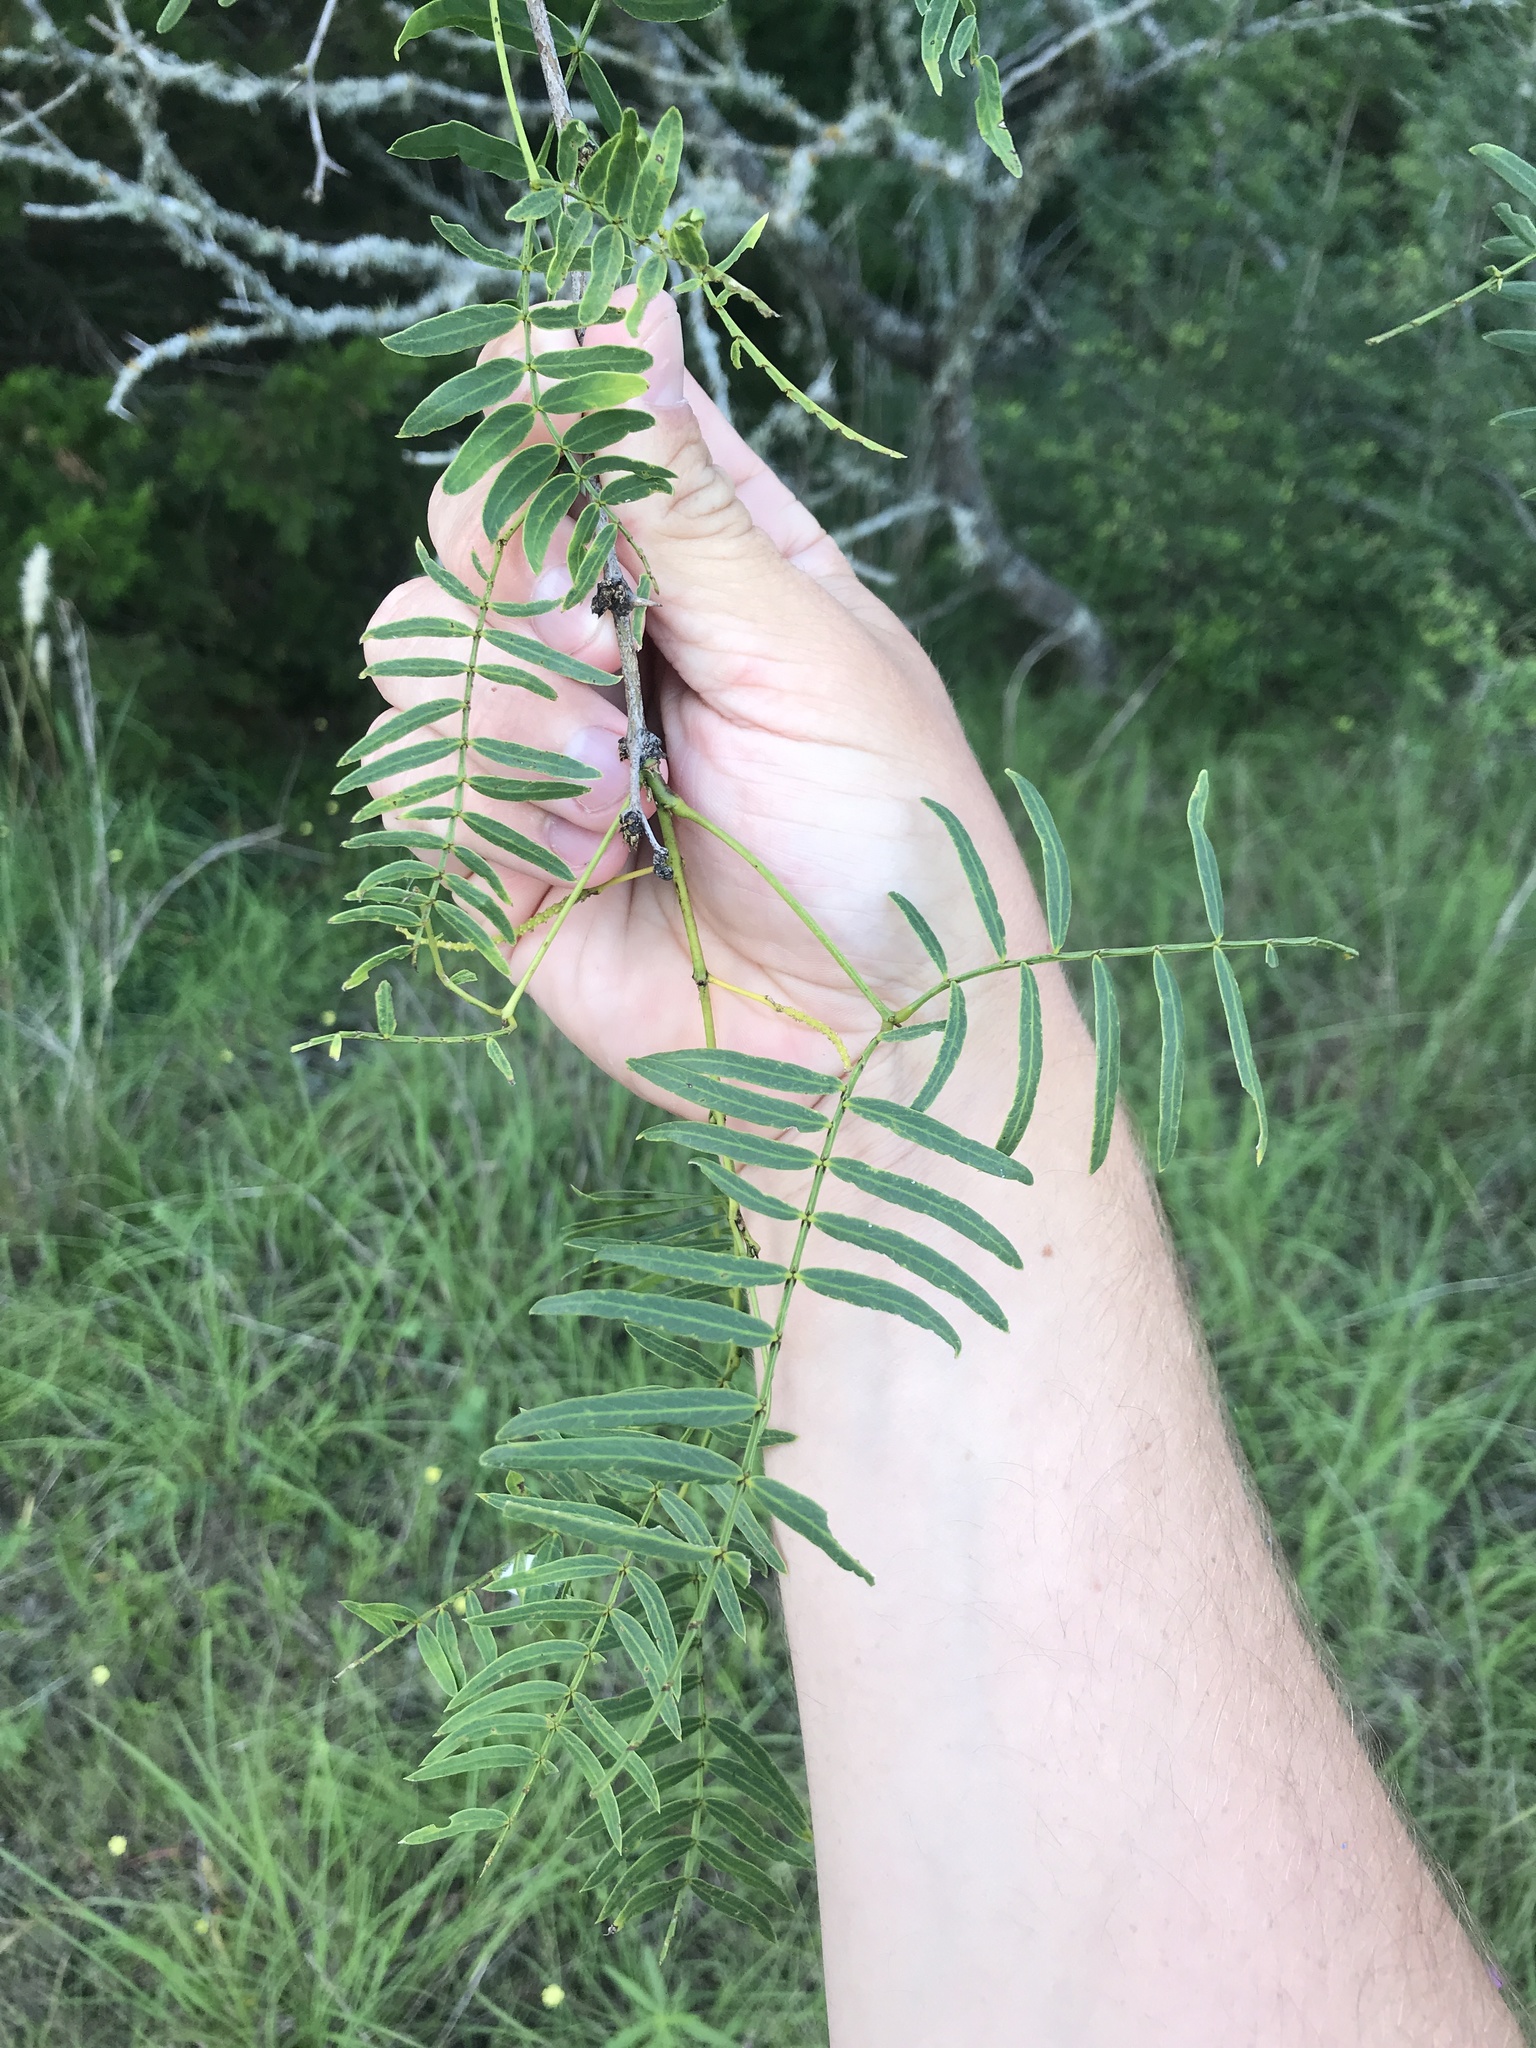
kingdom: Plantae
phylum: Tracheophyta
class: Magnoliopsida
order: Fabales
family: Fabaceae
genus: Prosopis
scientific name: Prosopis glandulosa
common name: Honey mesquite
